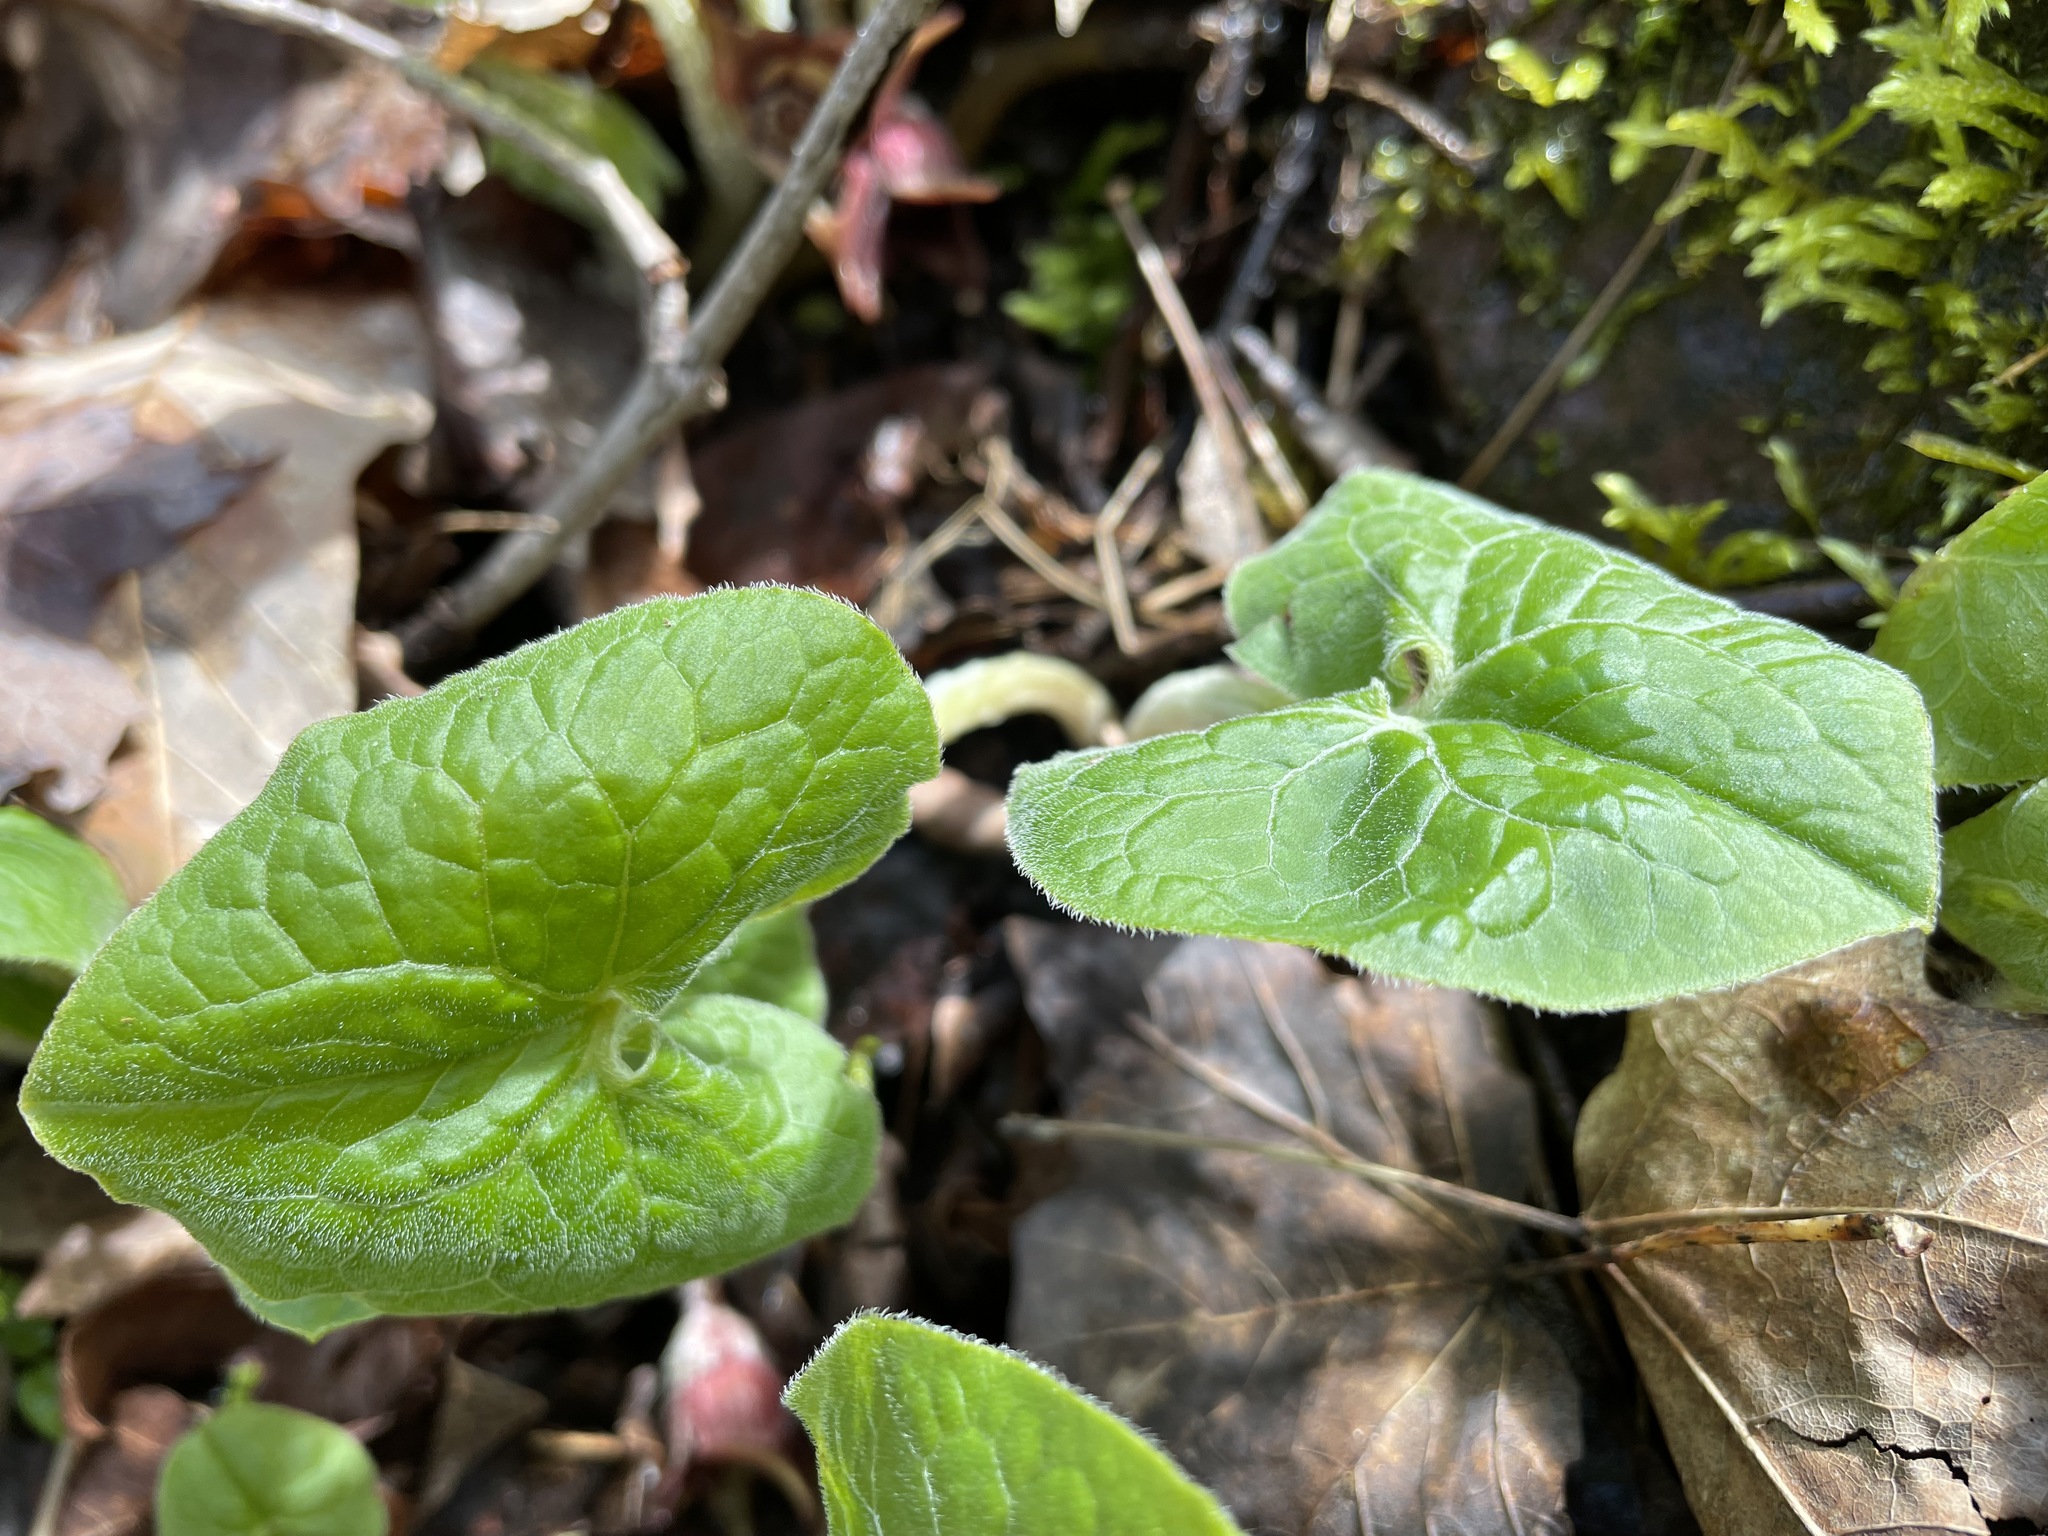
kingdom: Plantae
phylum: Tracheophyta
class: Magnoliopsida
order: Piperales
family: Aristolochiaceae
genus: Asarum
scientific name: Asarum canadense
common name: Wild ginger
